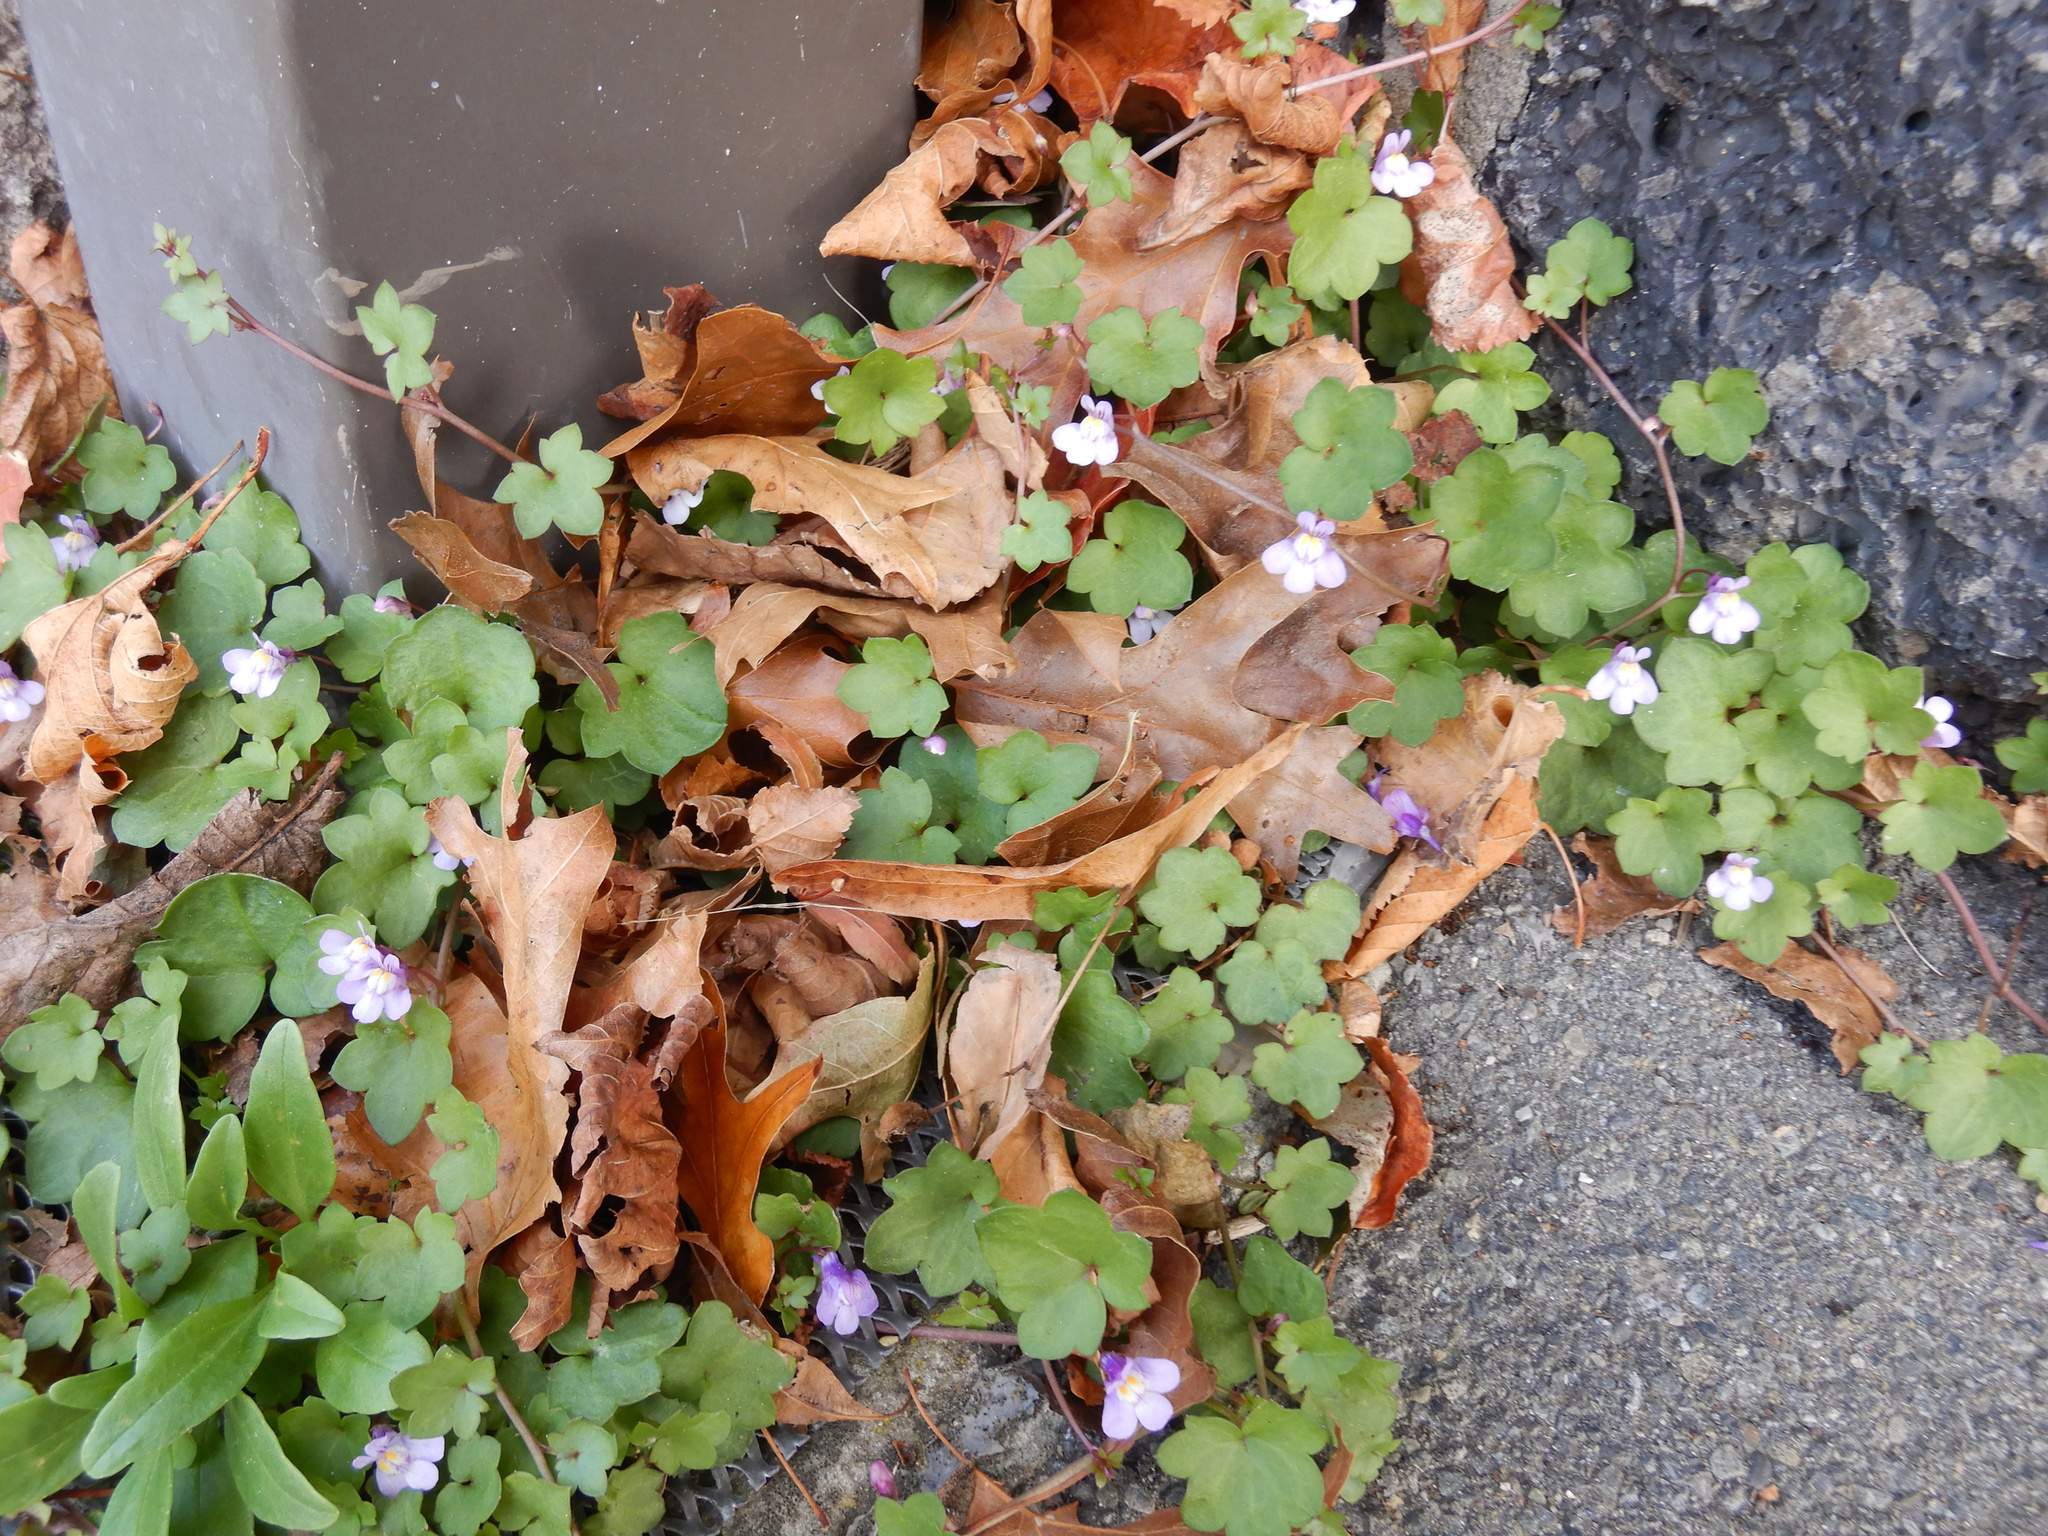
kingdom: Plantae
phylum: Tracheophyta
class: Magnoliopsida
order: Lamiales
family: Plantaginaceae
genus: Cymbalaria
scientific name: Cymbalaria muralis
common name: Ivy-leaved toadflax
